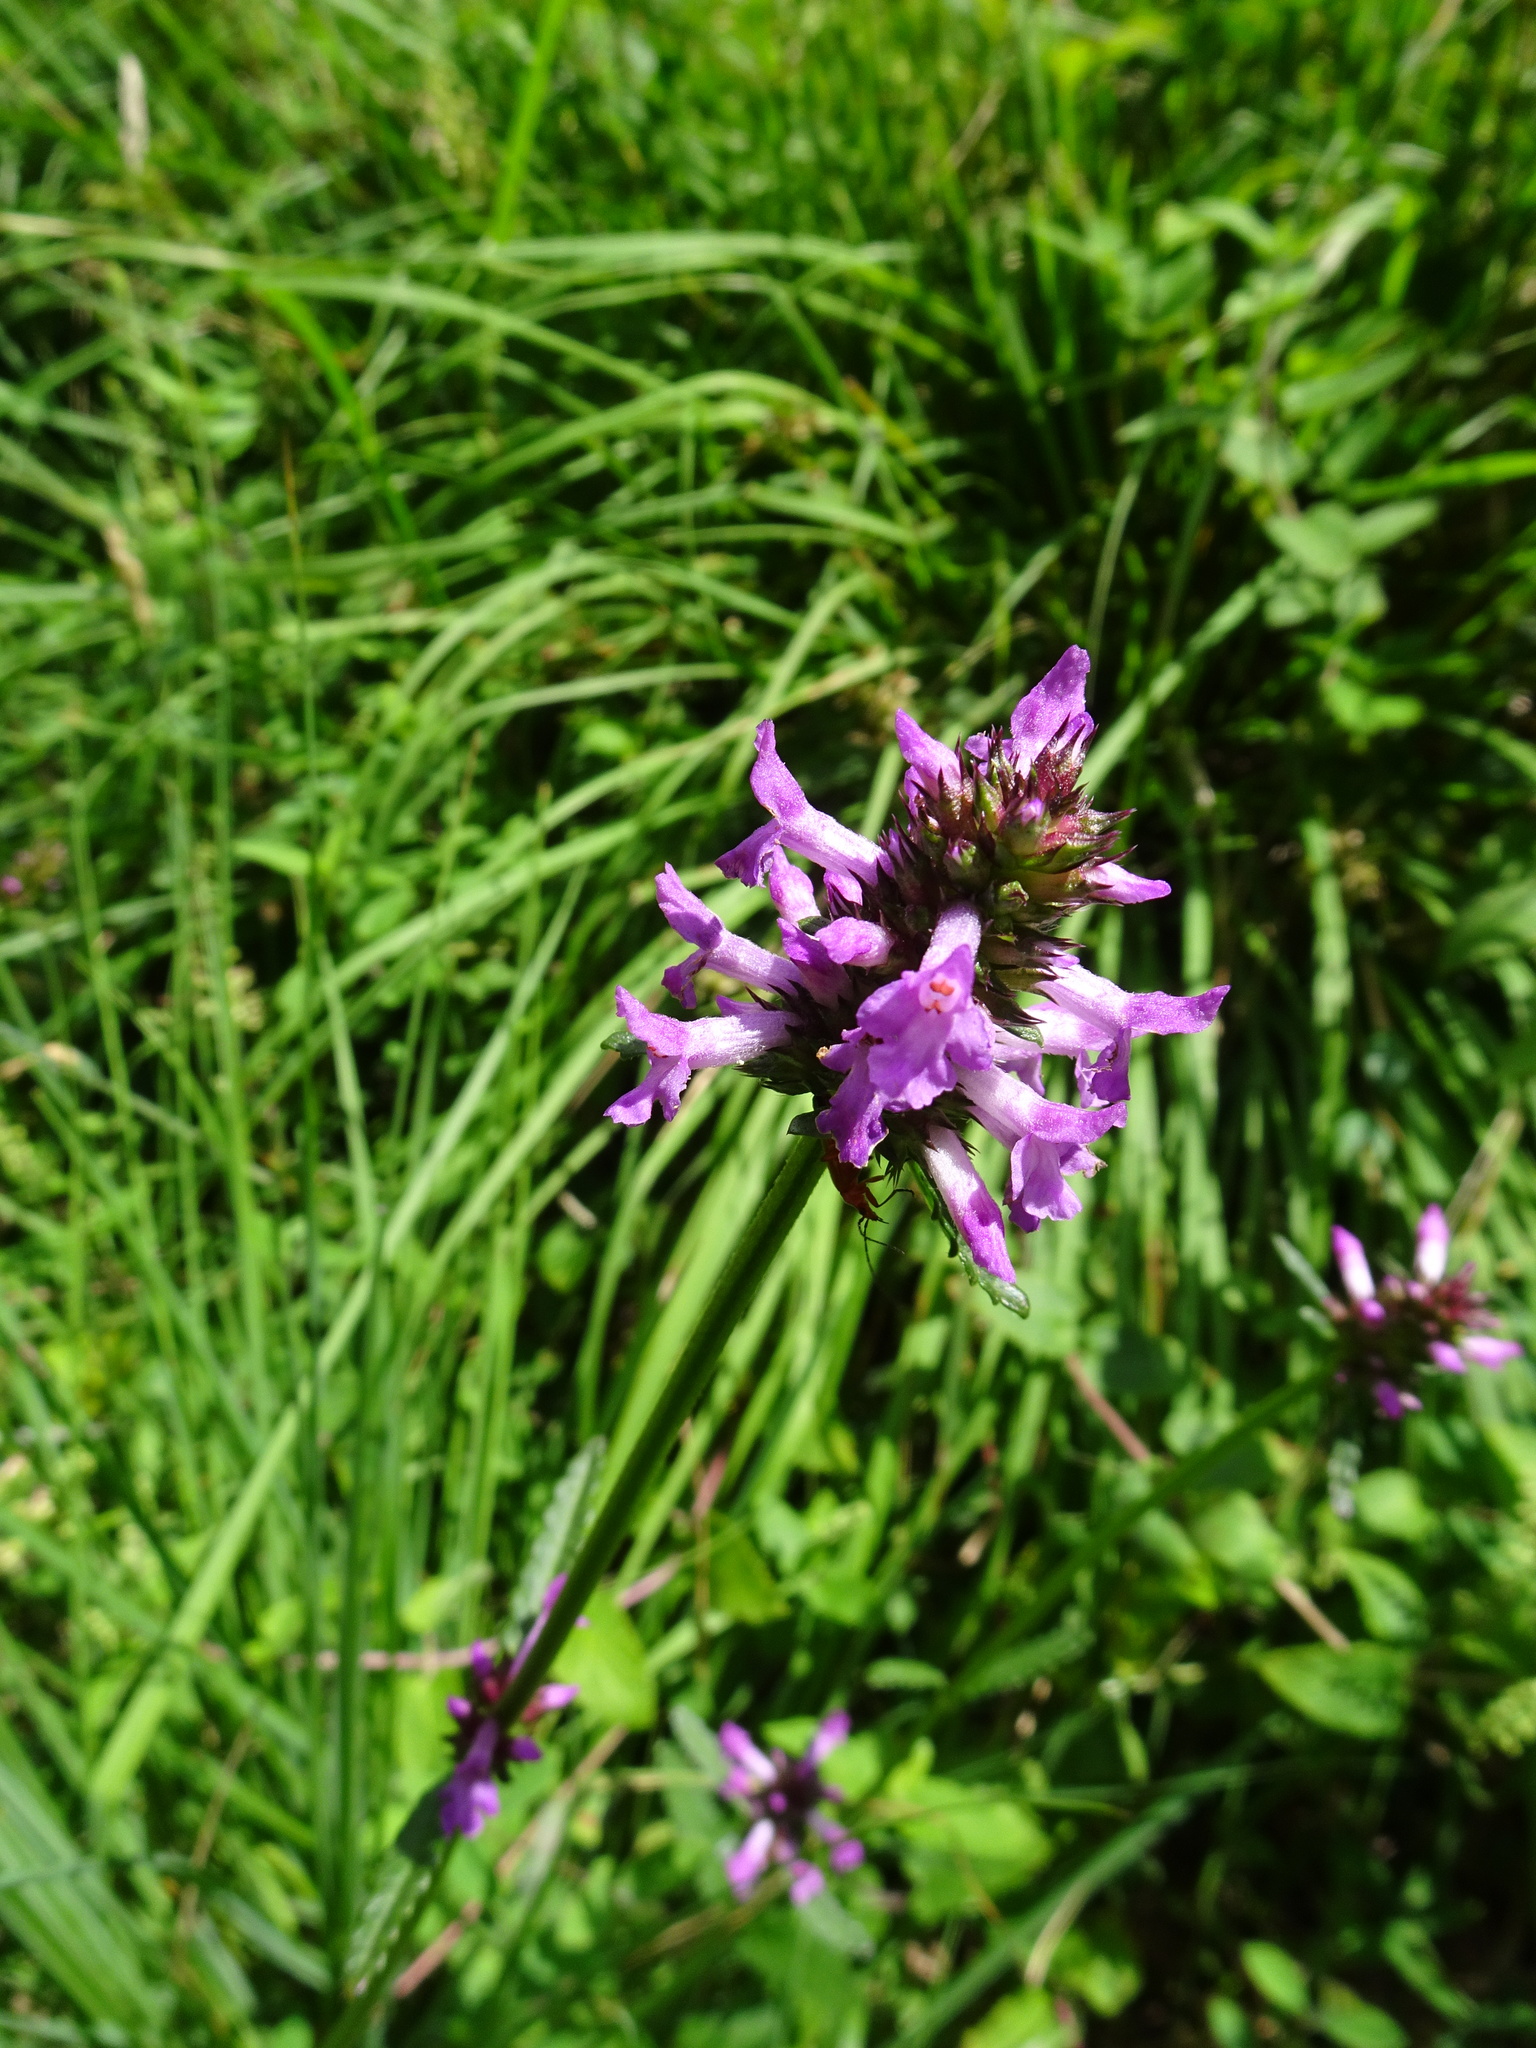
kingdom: Plantae
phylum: Tracheophyta
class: Magnoliopsida
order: Lamiales
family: Lamiaceae
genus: Betonica
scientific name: Betonica officinalis
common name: Bishop's-wort
